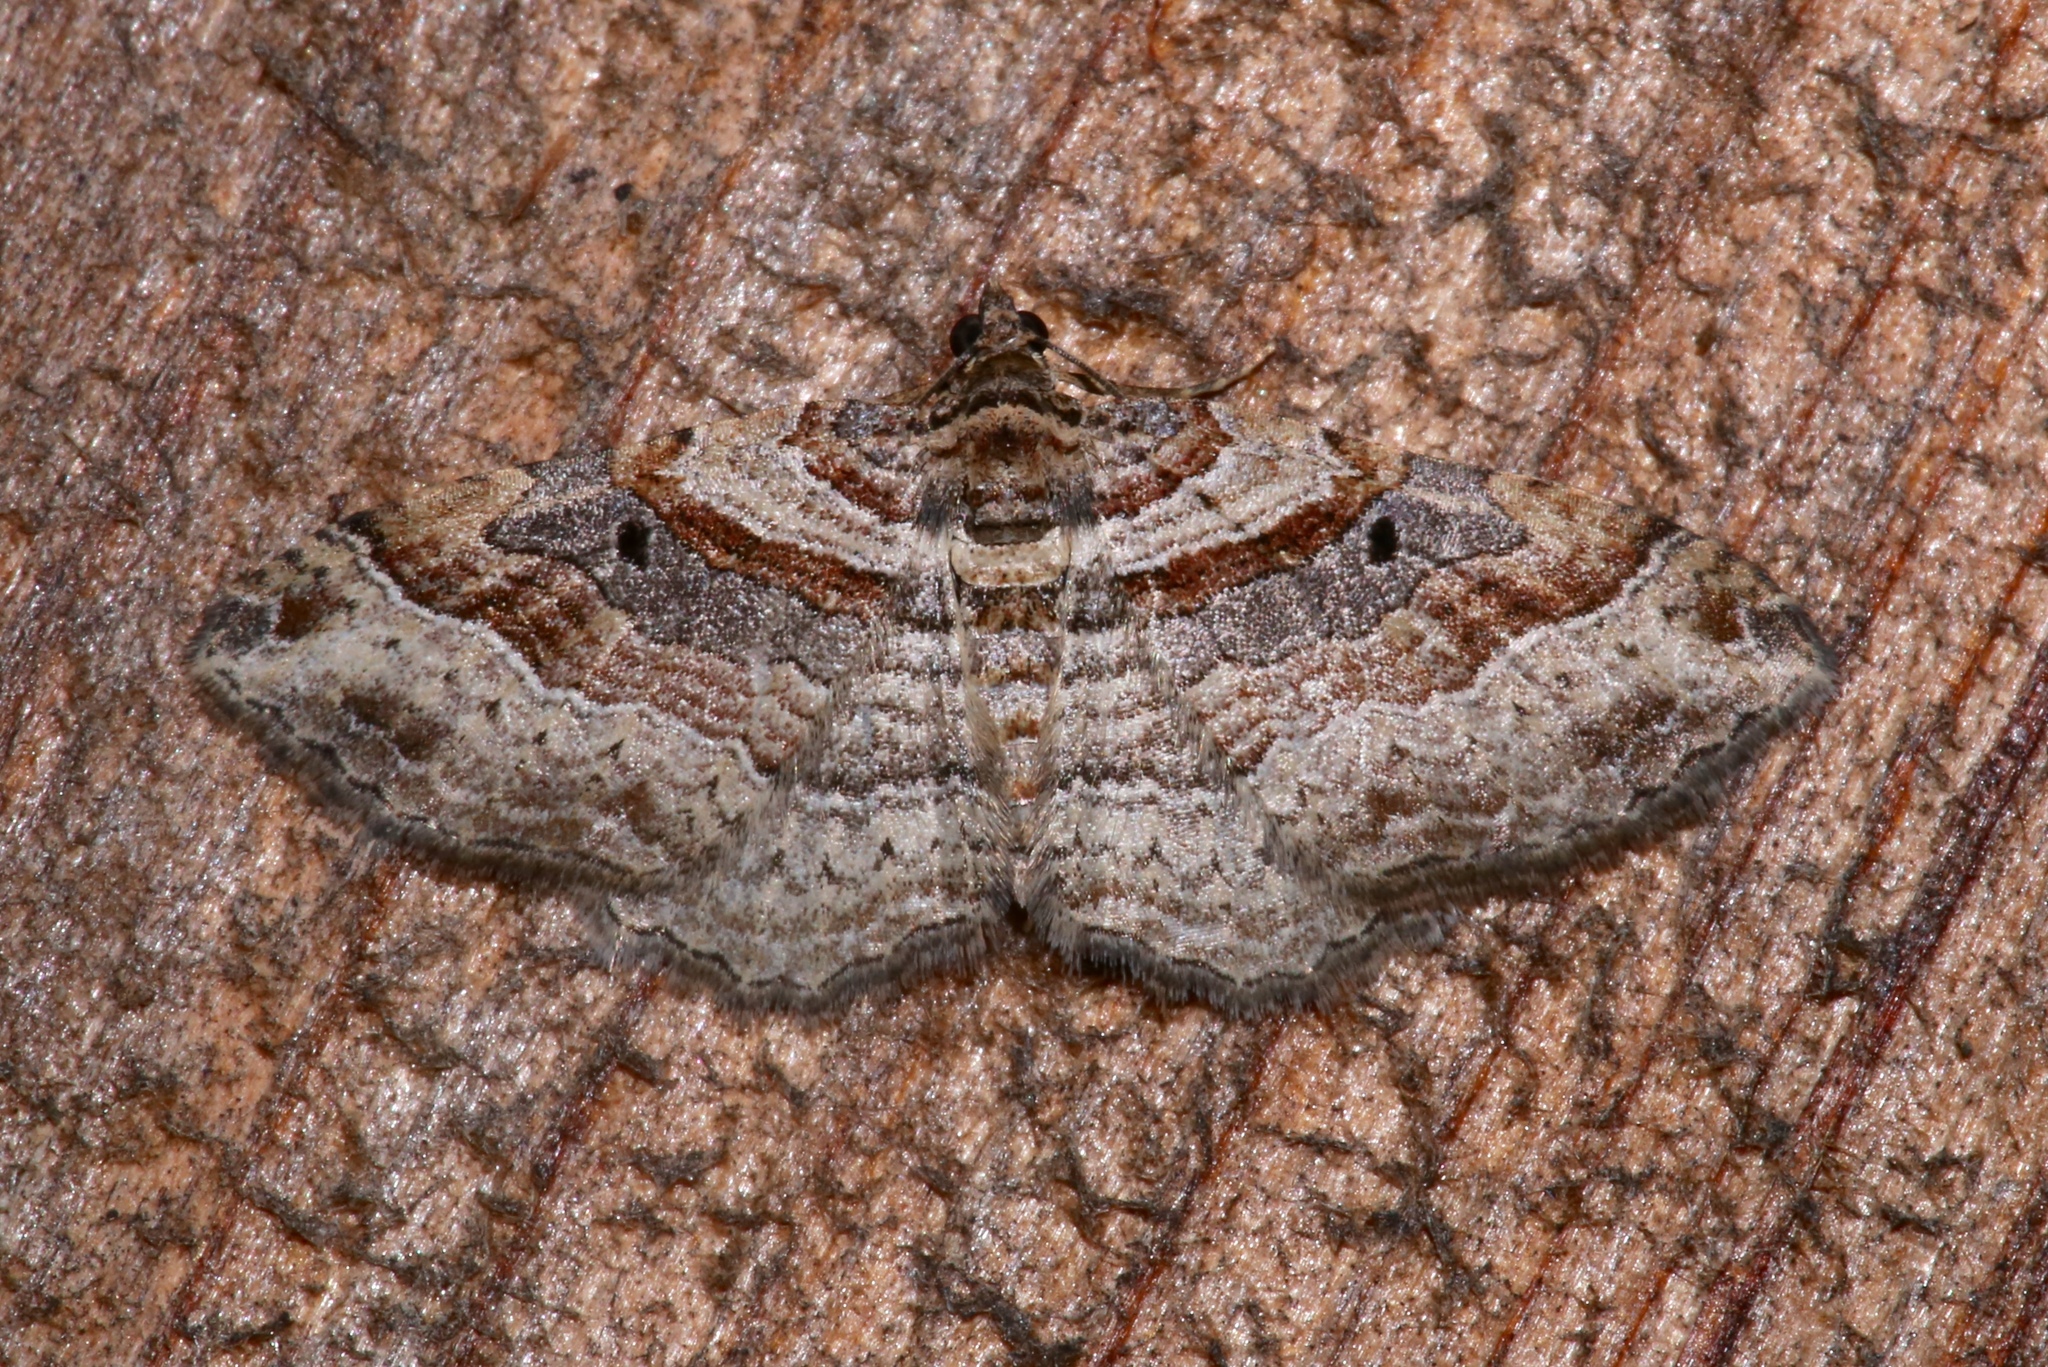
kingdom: Animalia
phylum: Arthropoda
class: Insecta
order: Lepidoptera
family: Geometridae
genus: Costaconvexa
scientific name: Costaconvexa centrostrigaria
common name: Bent-line carpet
